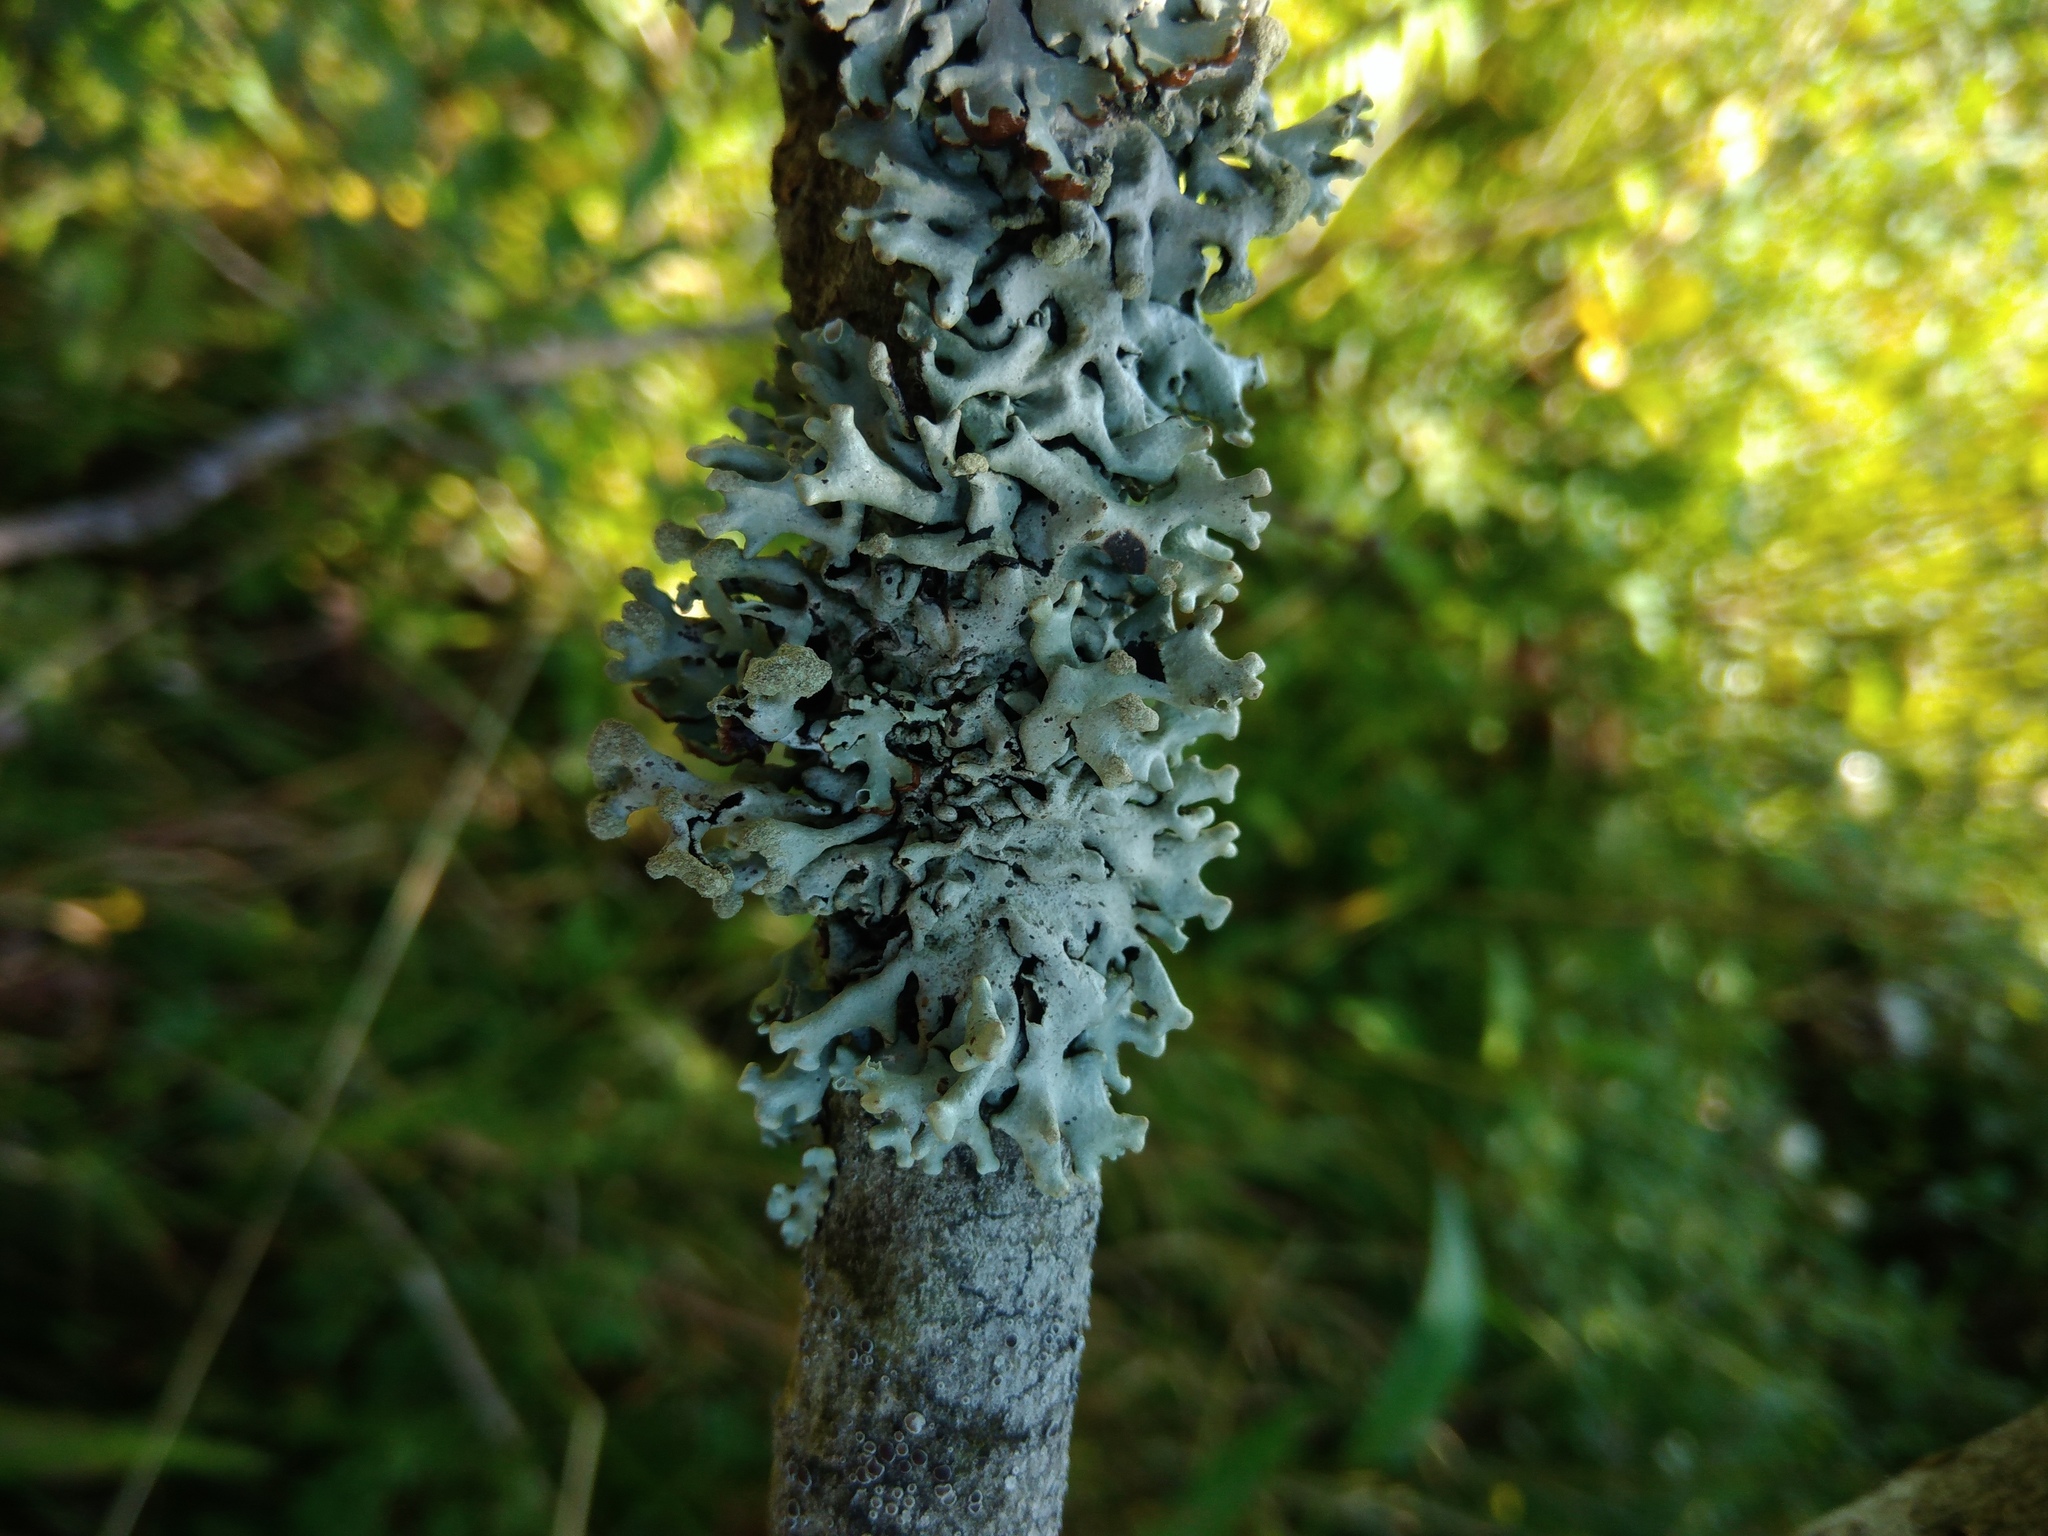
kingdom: Fungi
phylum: Ascomycota
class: Lecanoromycetes
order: Lecanorales
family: Parmeliaceae
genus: Hypogymnia
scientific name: Hypogymnia tubulosa
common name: Powder-headed tube lichen
